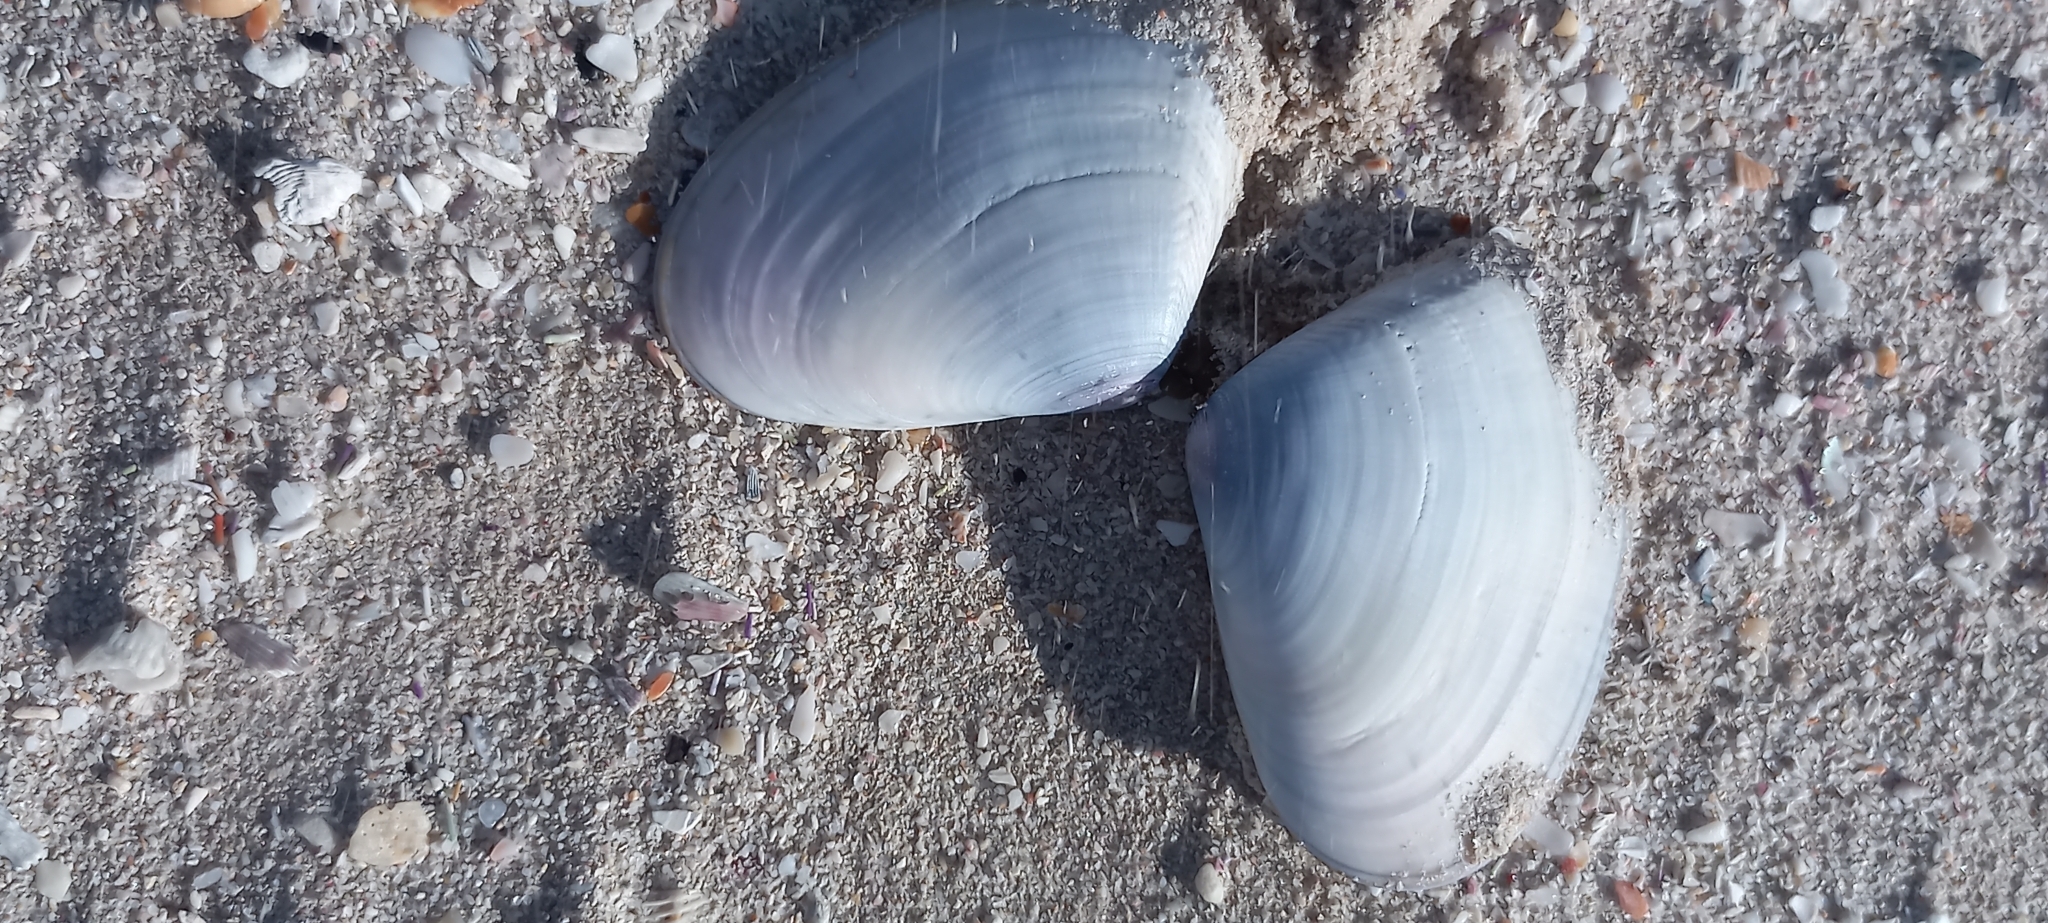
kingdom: Animalia
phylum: Mollusca
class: Bivalvia
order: Cardiida
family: Donacidae
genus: Donax
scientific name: Donax serra
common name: Giant south african wedge clam
